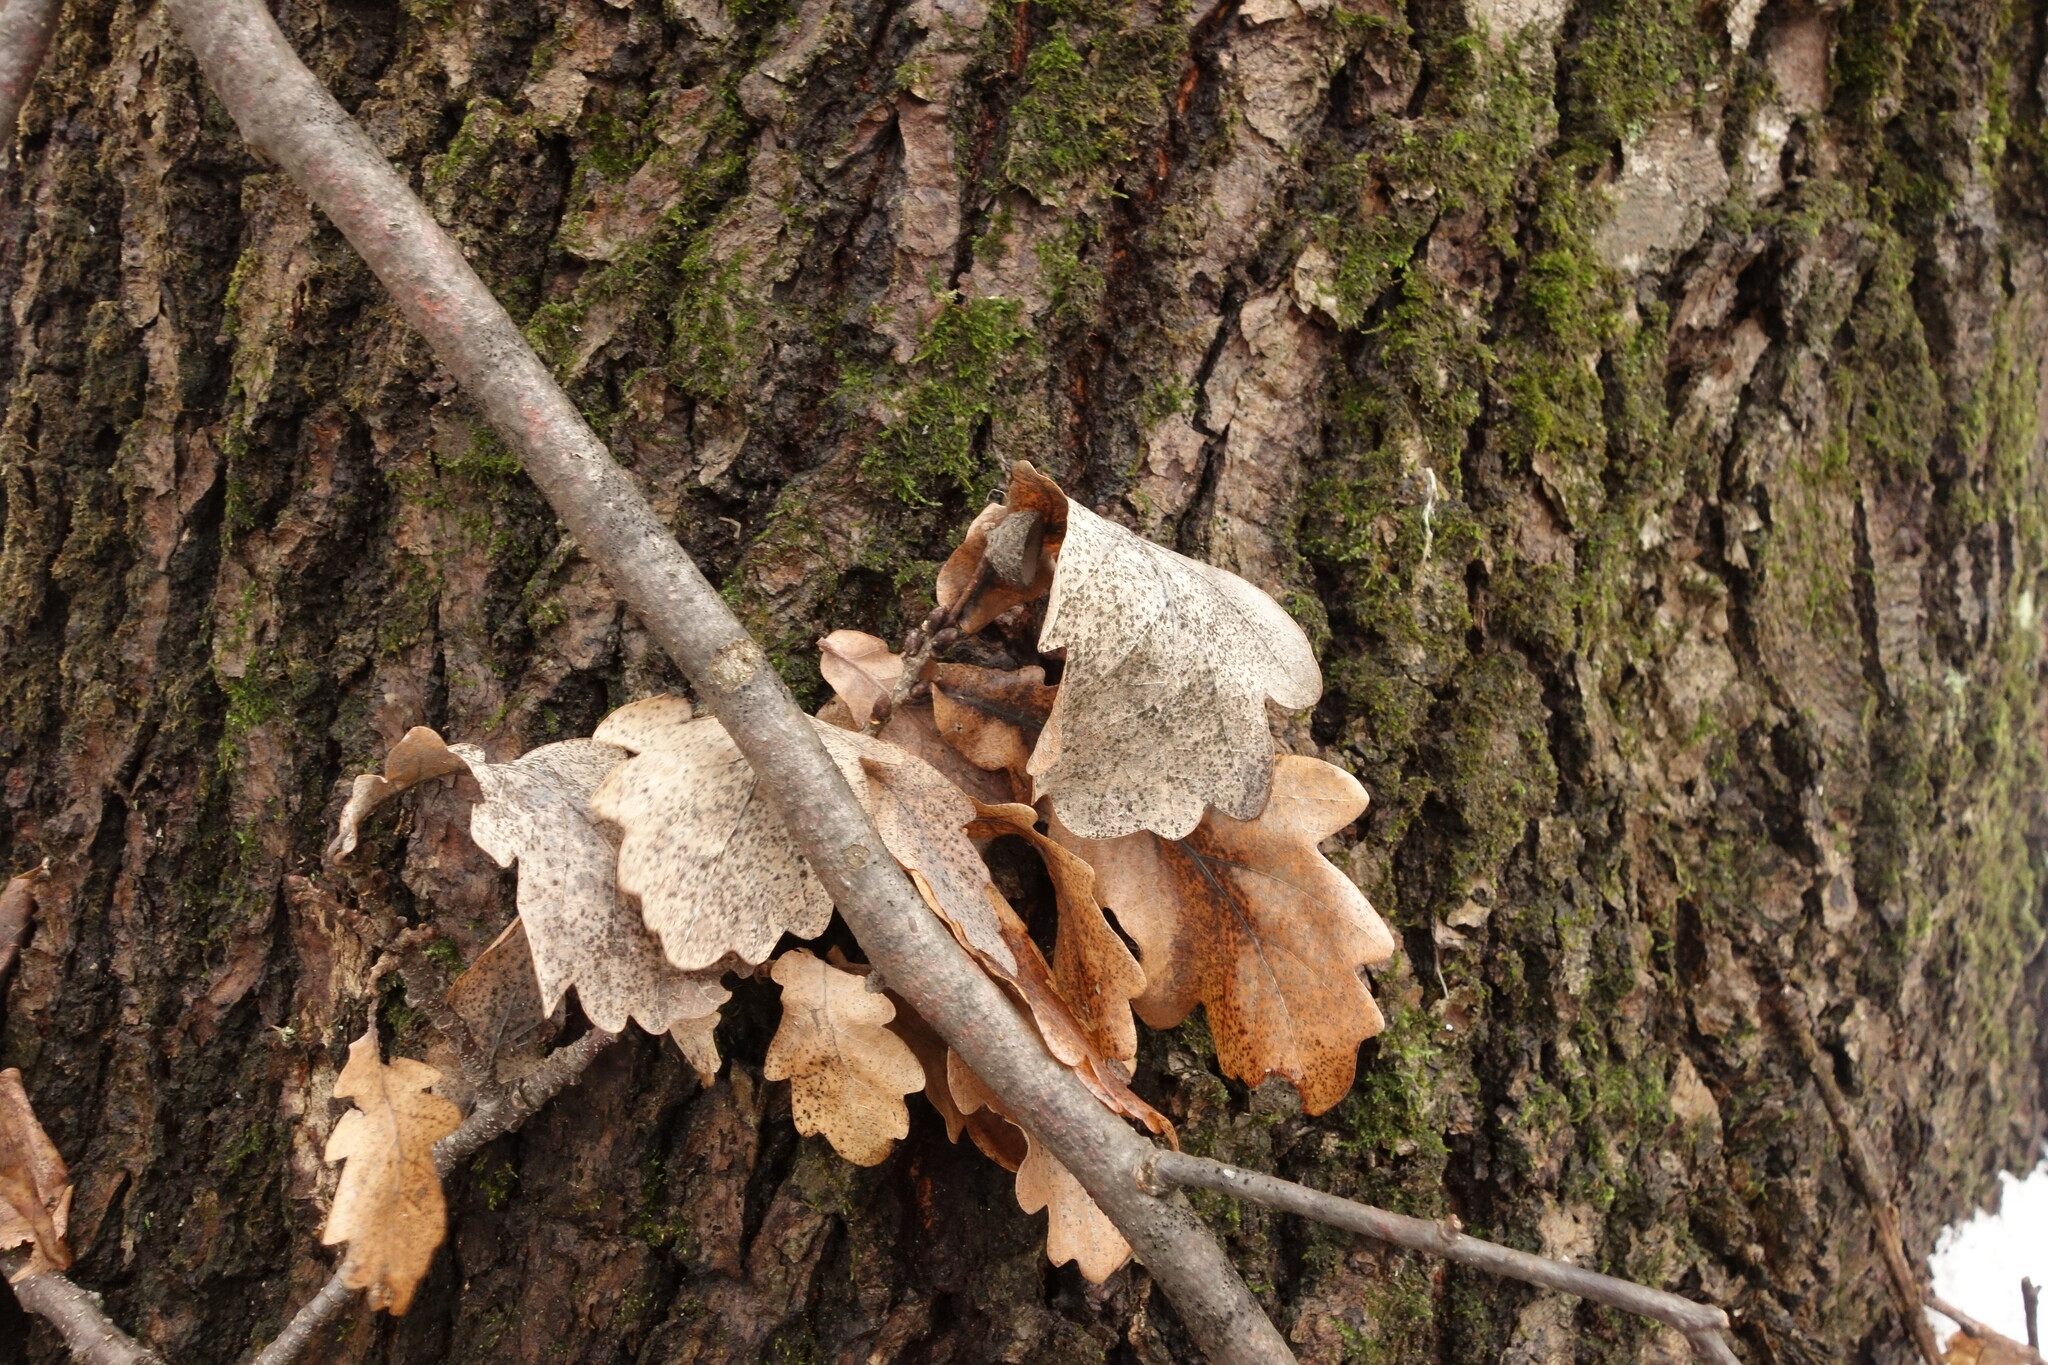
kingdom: Plantae
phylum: Tracheophyta
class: Magnoliopsida
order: Fagales
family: Fagaceae
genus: Quercus
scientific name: Quercus robur
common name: Pedunculate oak
